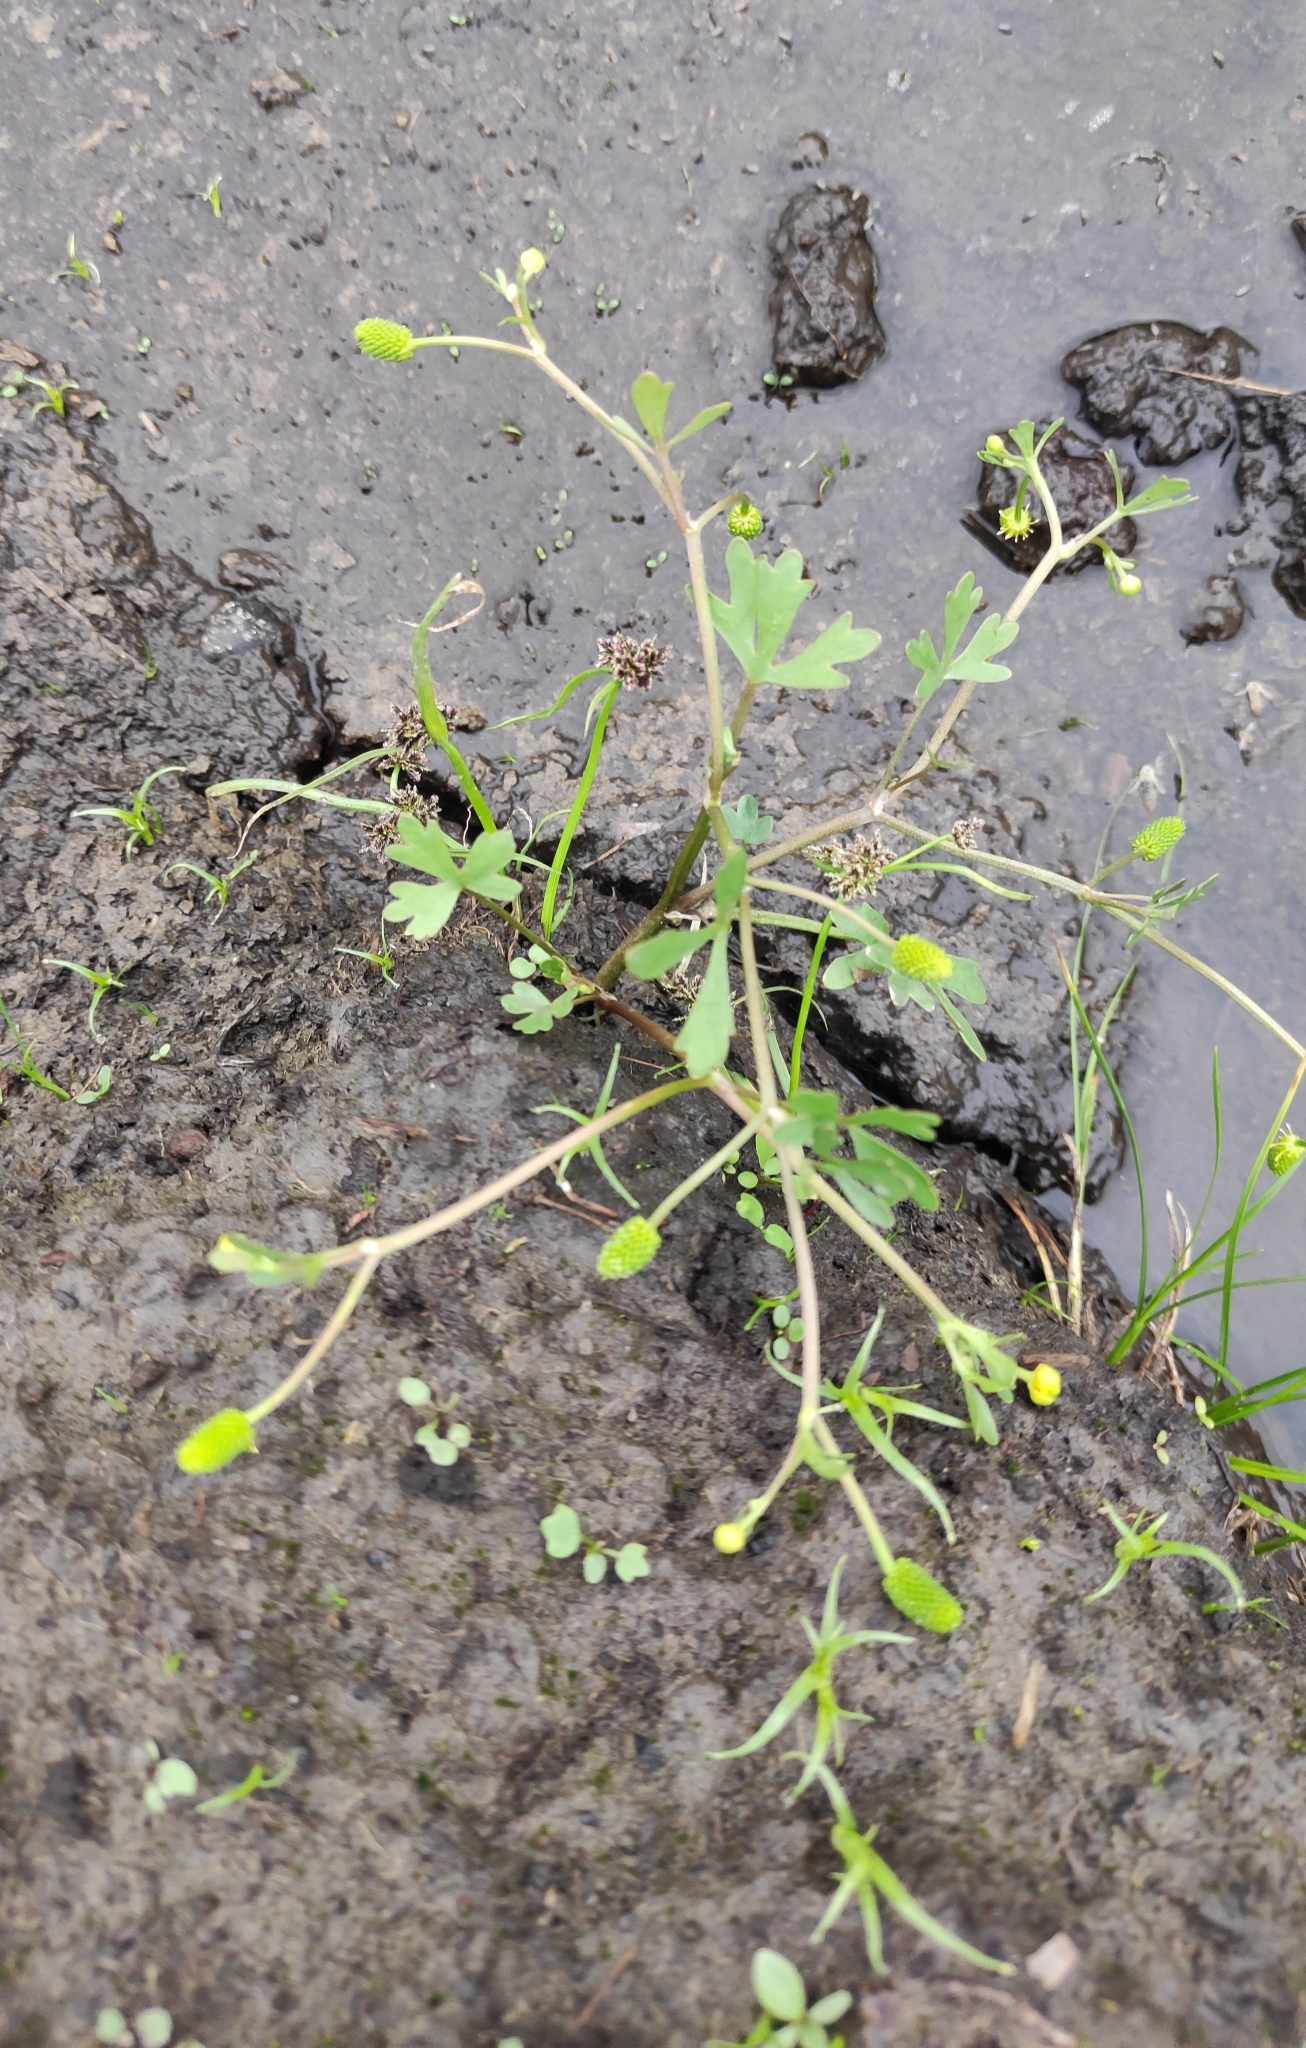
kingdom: Plantae
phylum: Tracheophyta
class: Magnoliopsida
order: Ranunculales
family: Ranunculaceae
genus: Ranunculus
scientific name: Ranunculus sceleratus
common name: Celery-leaved buttercup
